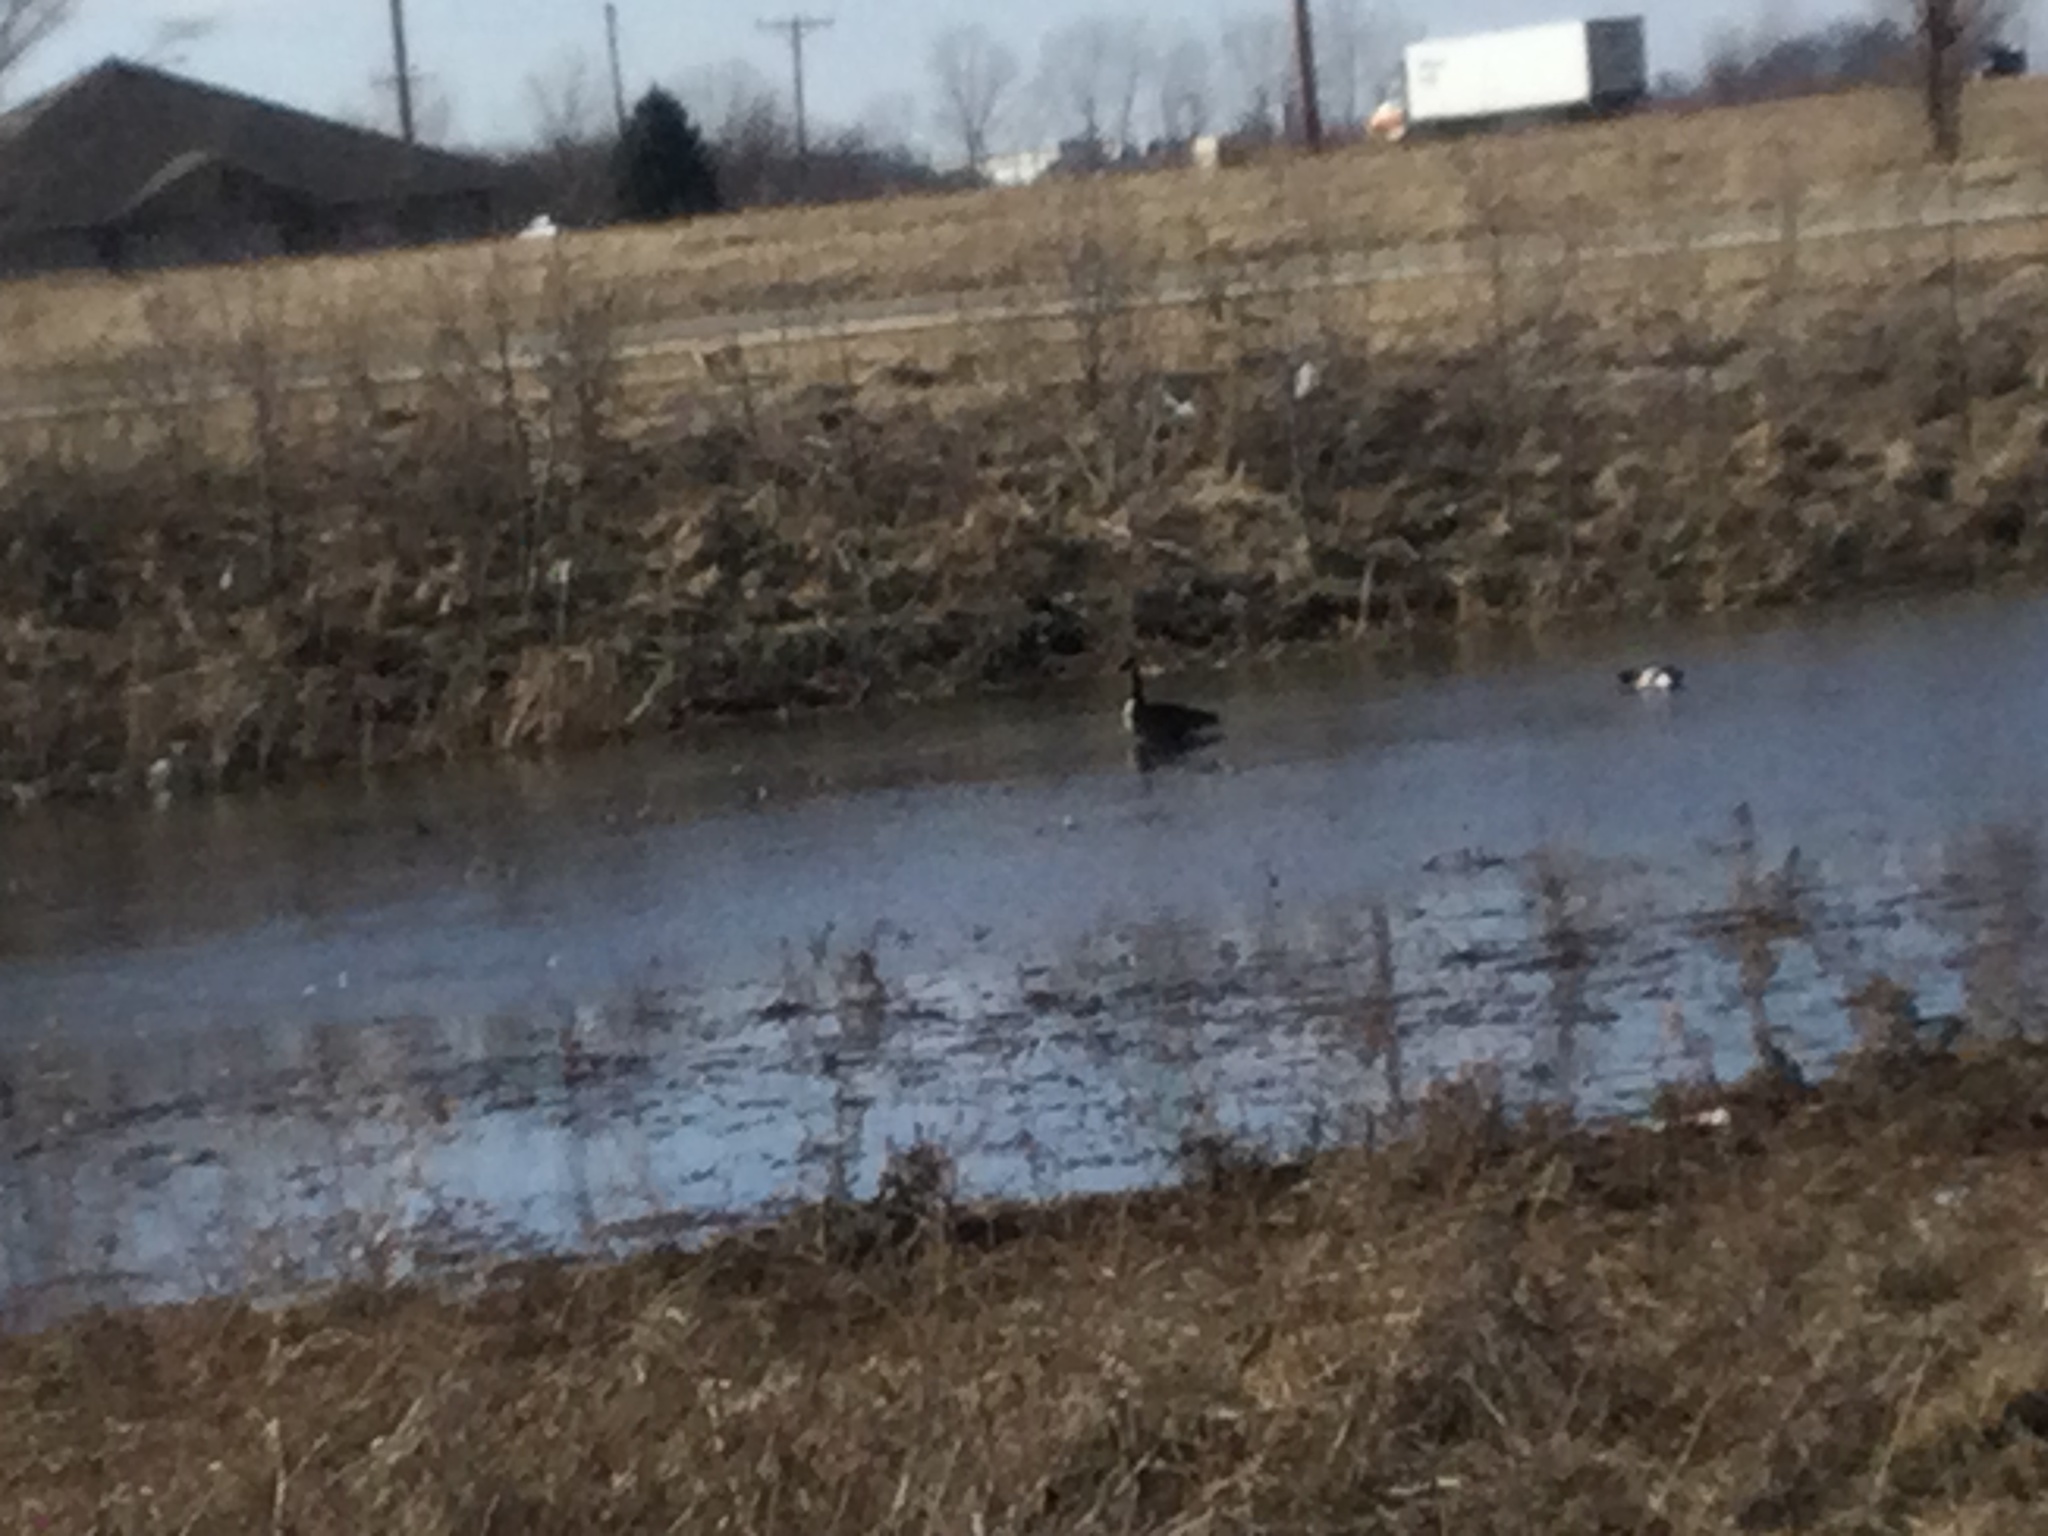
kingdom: Animalia
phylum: Chordata
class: Aves
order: Anseriformes
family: Anatidae
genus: Branta
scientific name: Branta canadensis
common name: Canada goose
